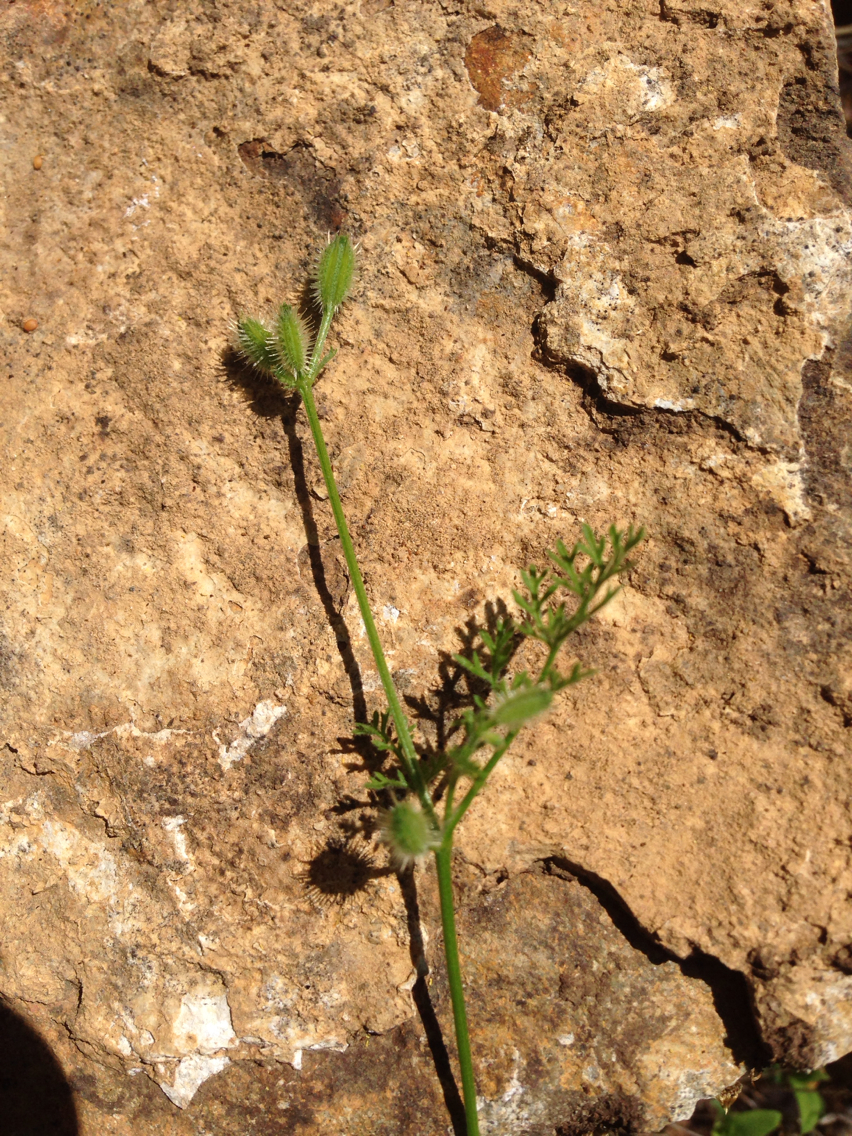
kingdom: Plantae
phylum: Tracheophyta
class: Magnoliopsida
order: Apiales
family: Apiaceae
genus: Yabea
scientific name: Yabea microcarpa
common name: False carrot
